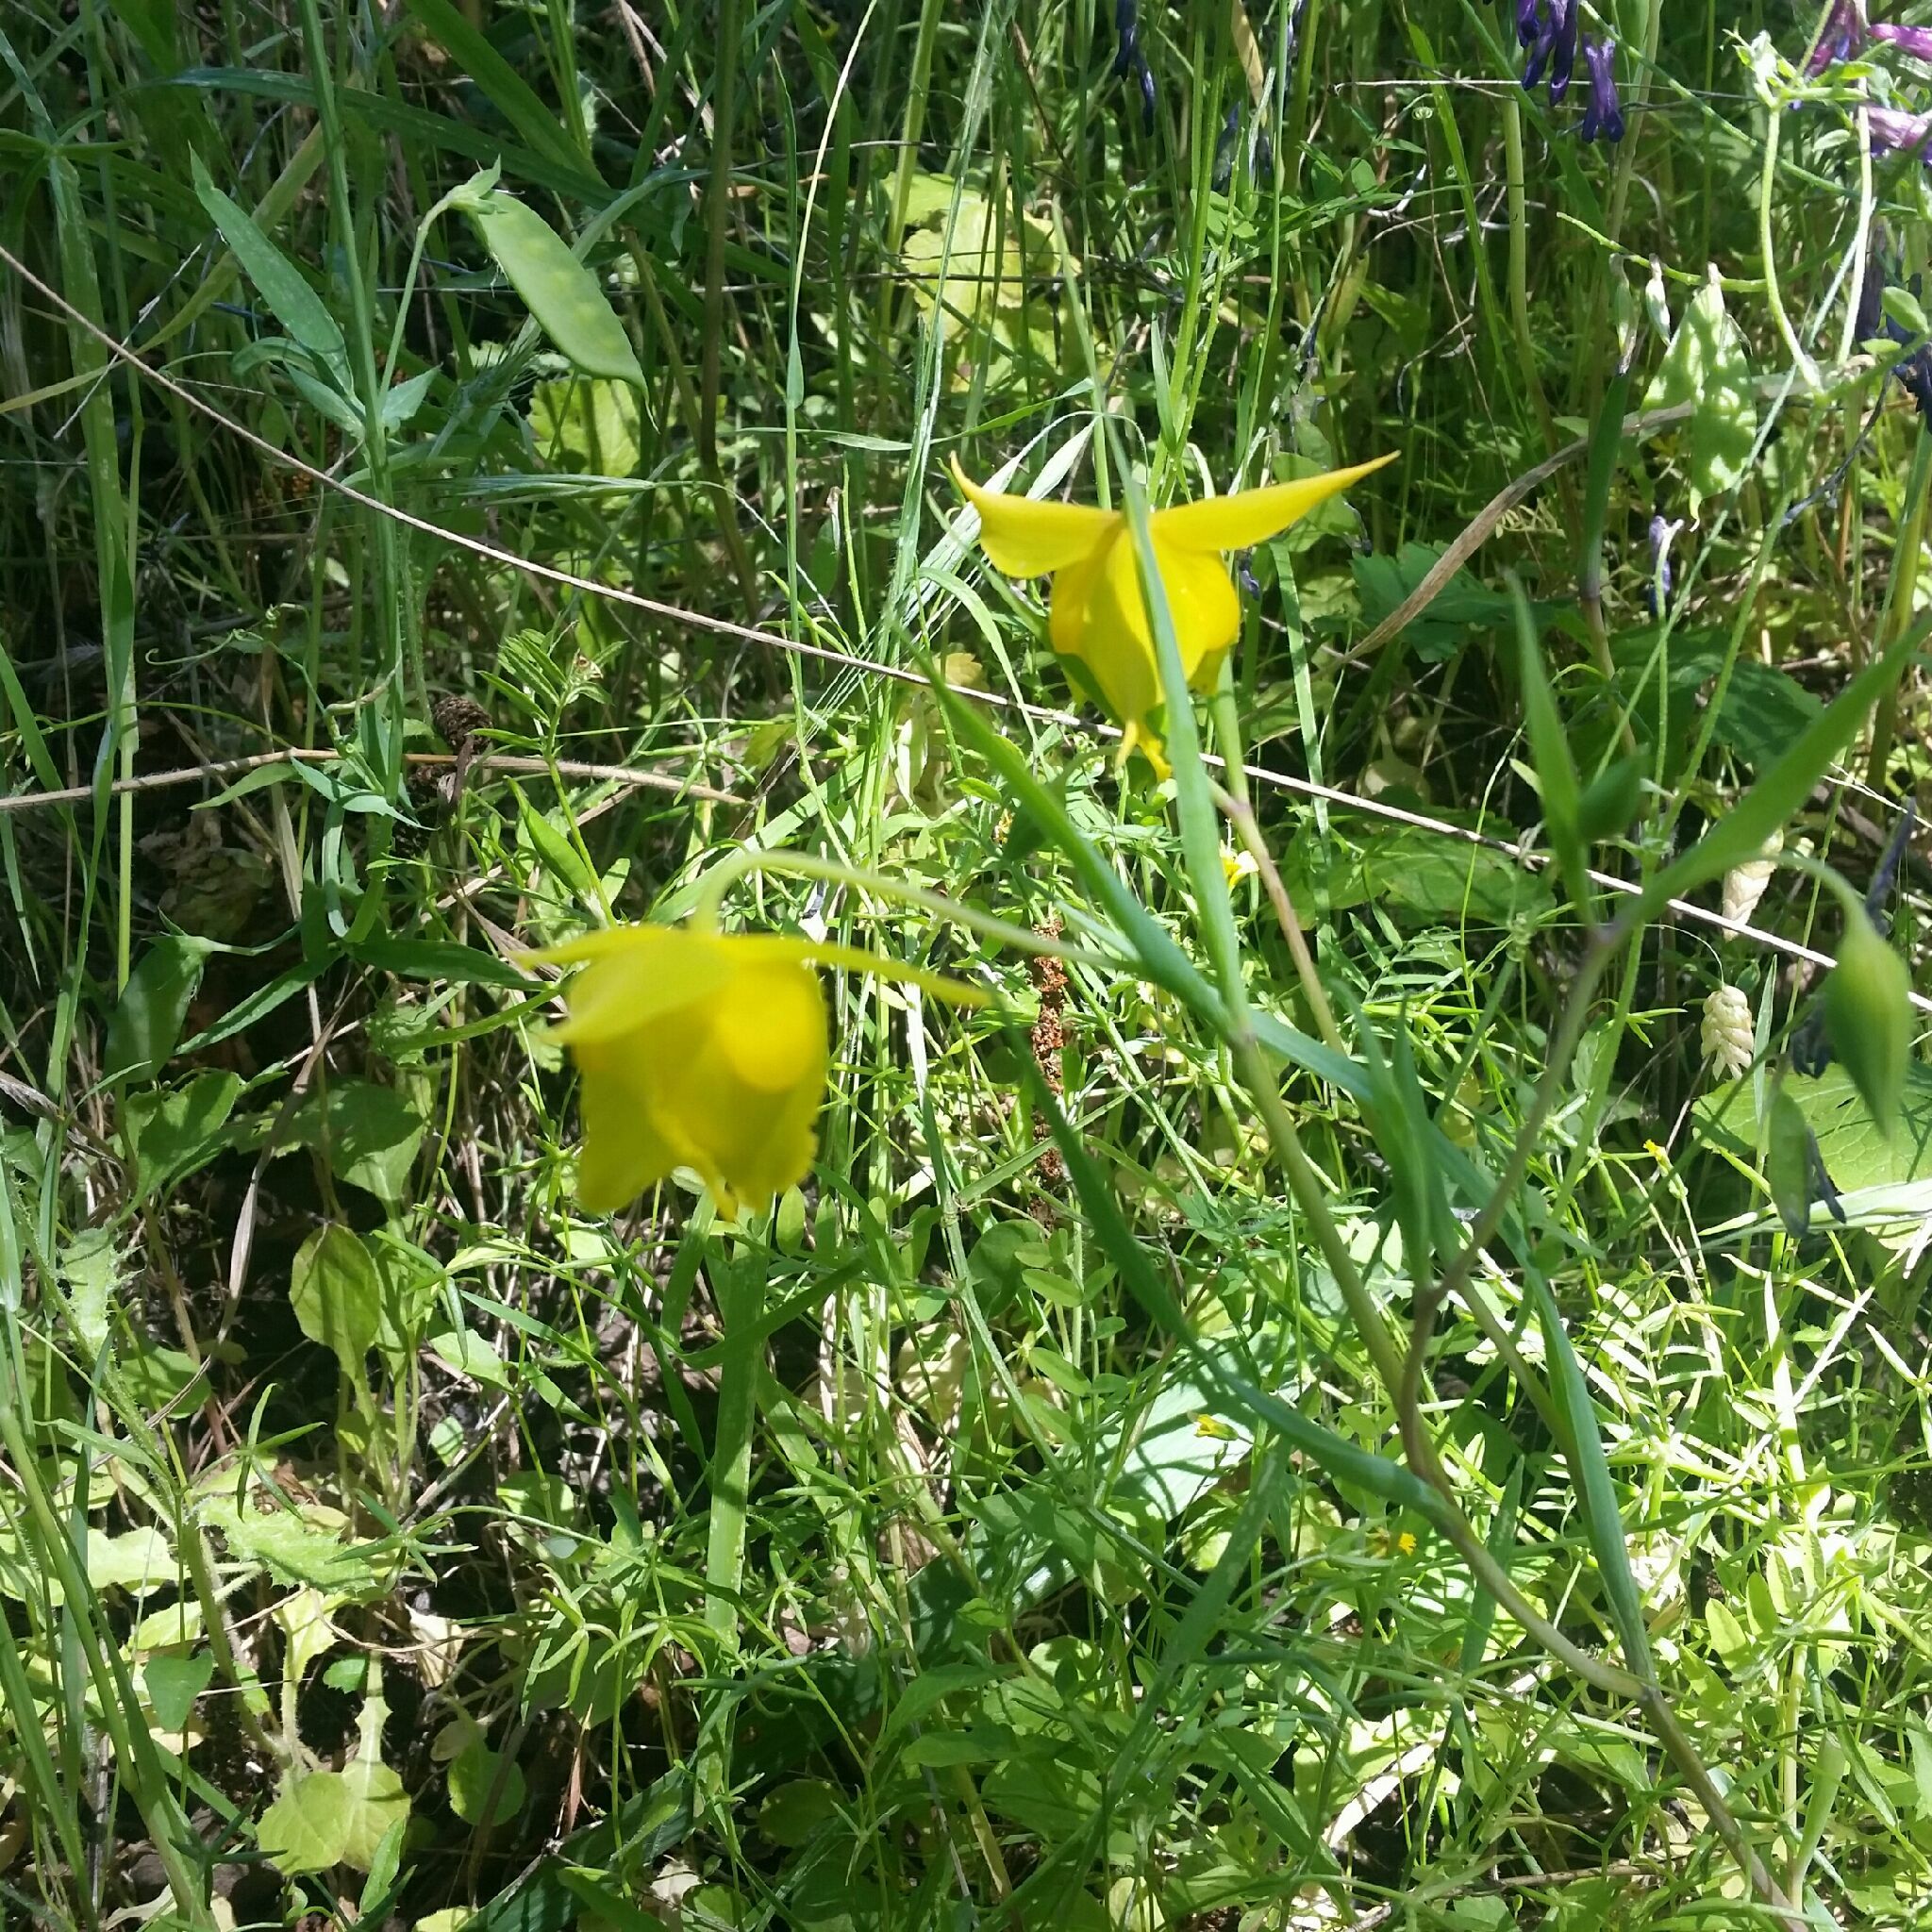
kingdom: Plantae
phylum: Tracheophyta
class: Liliopsida
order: Liliales
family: Liliaceae
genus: Calochortus
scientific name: Calochortus amabilis
